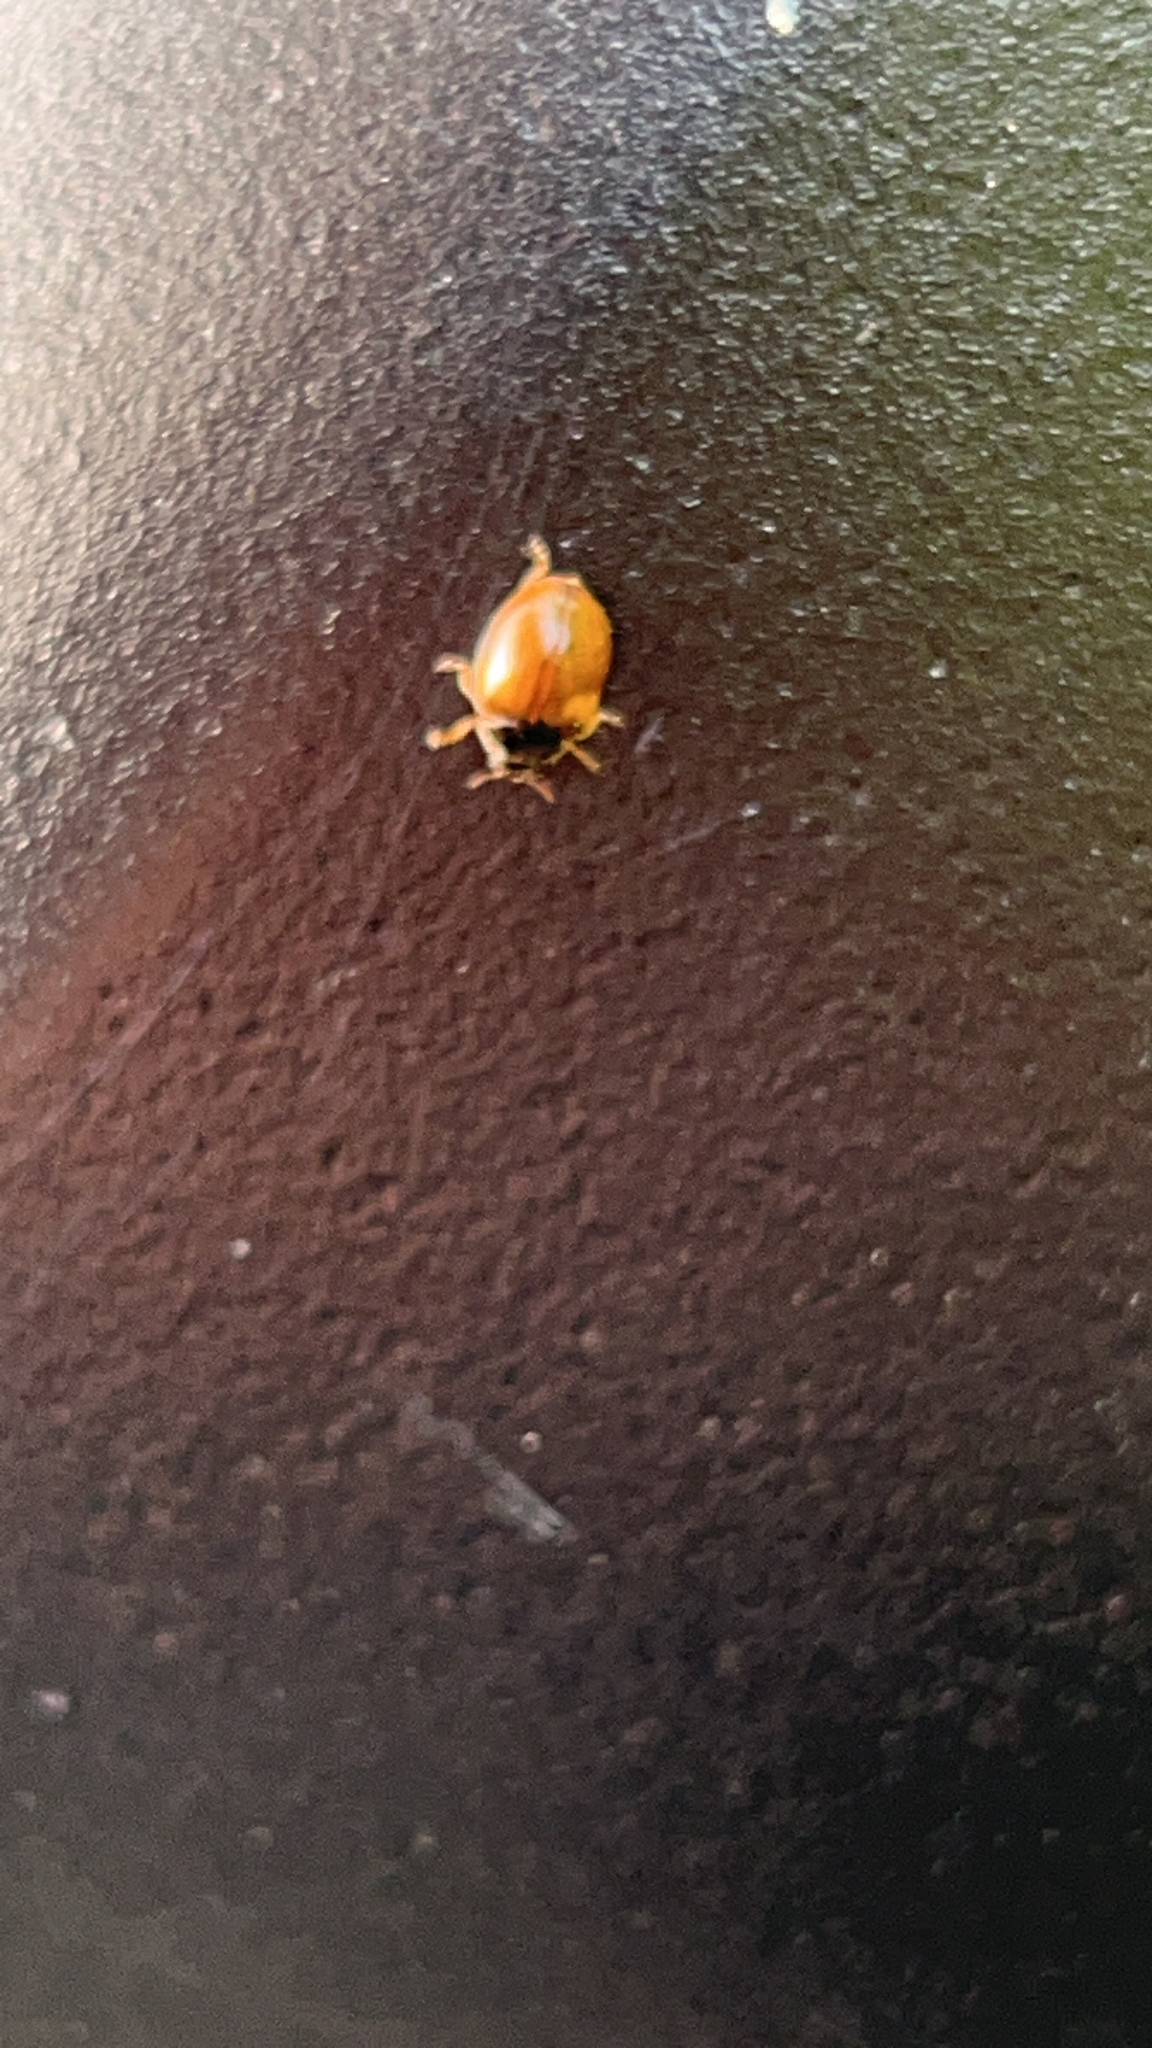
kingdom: Animalia
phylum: Arthropoda
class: Insecta
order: Coleoptera
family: Coccinellidae
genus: Adalia
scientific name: Adalia decempunctata
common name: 10-spot ladybird
